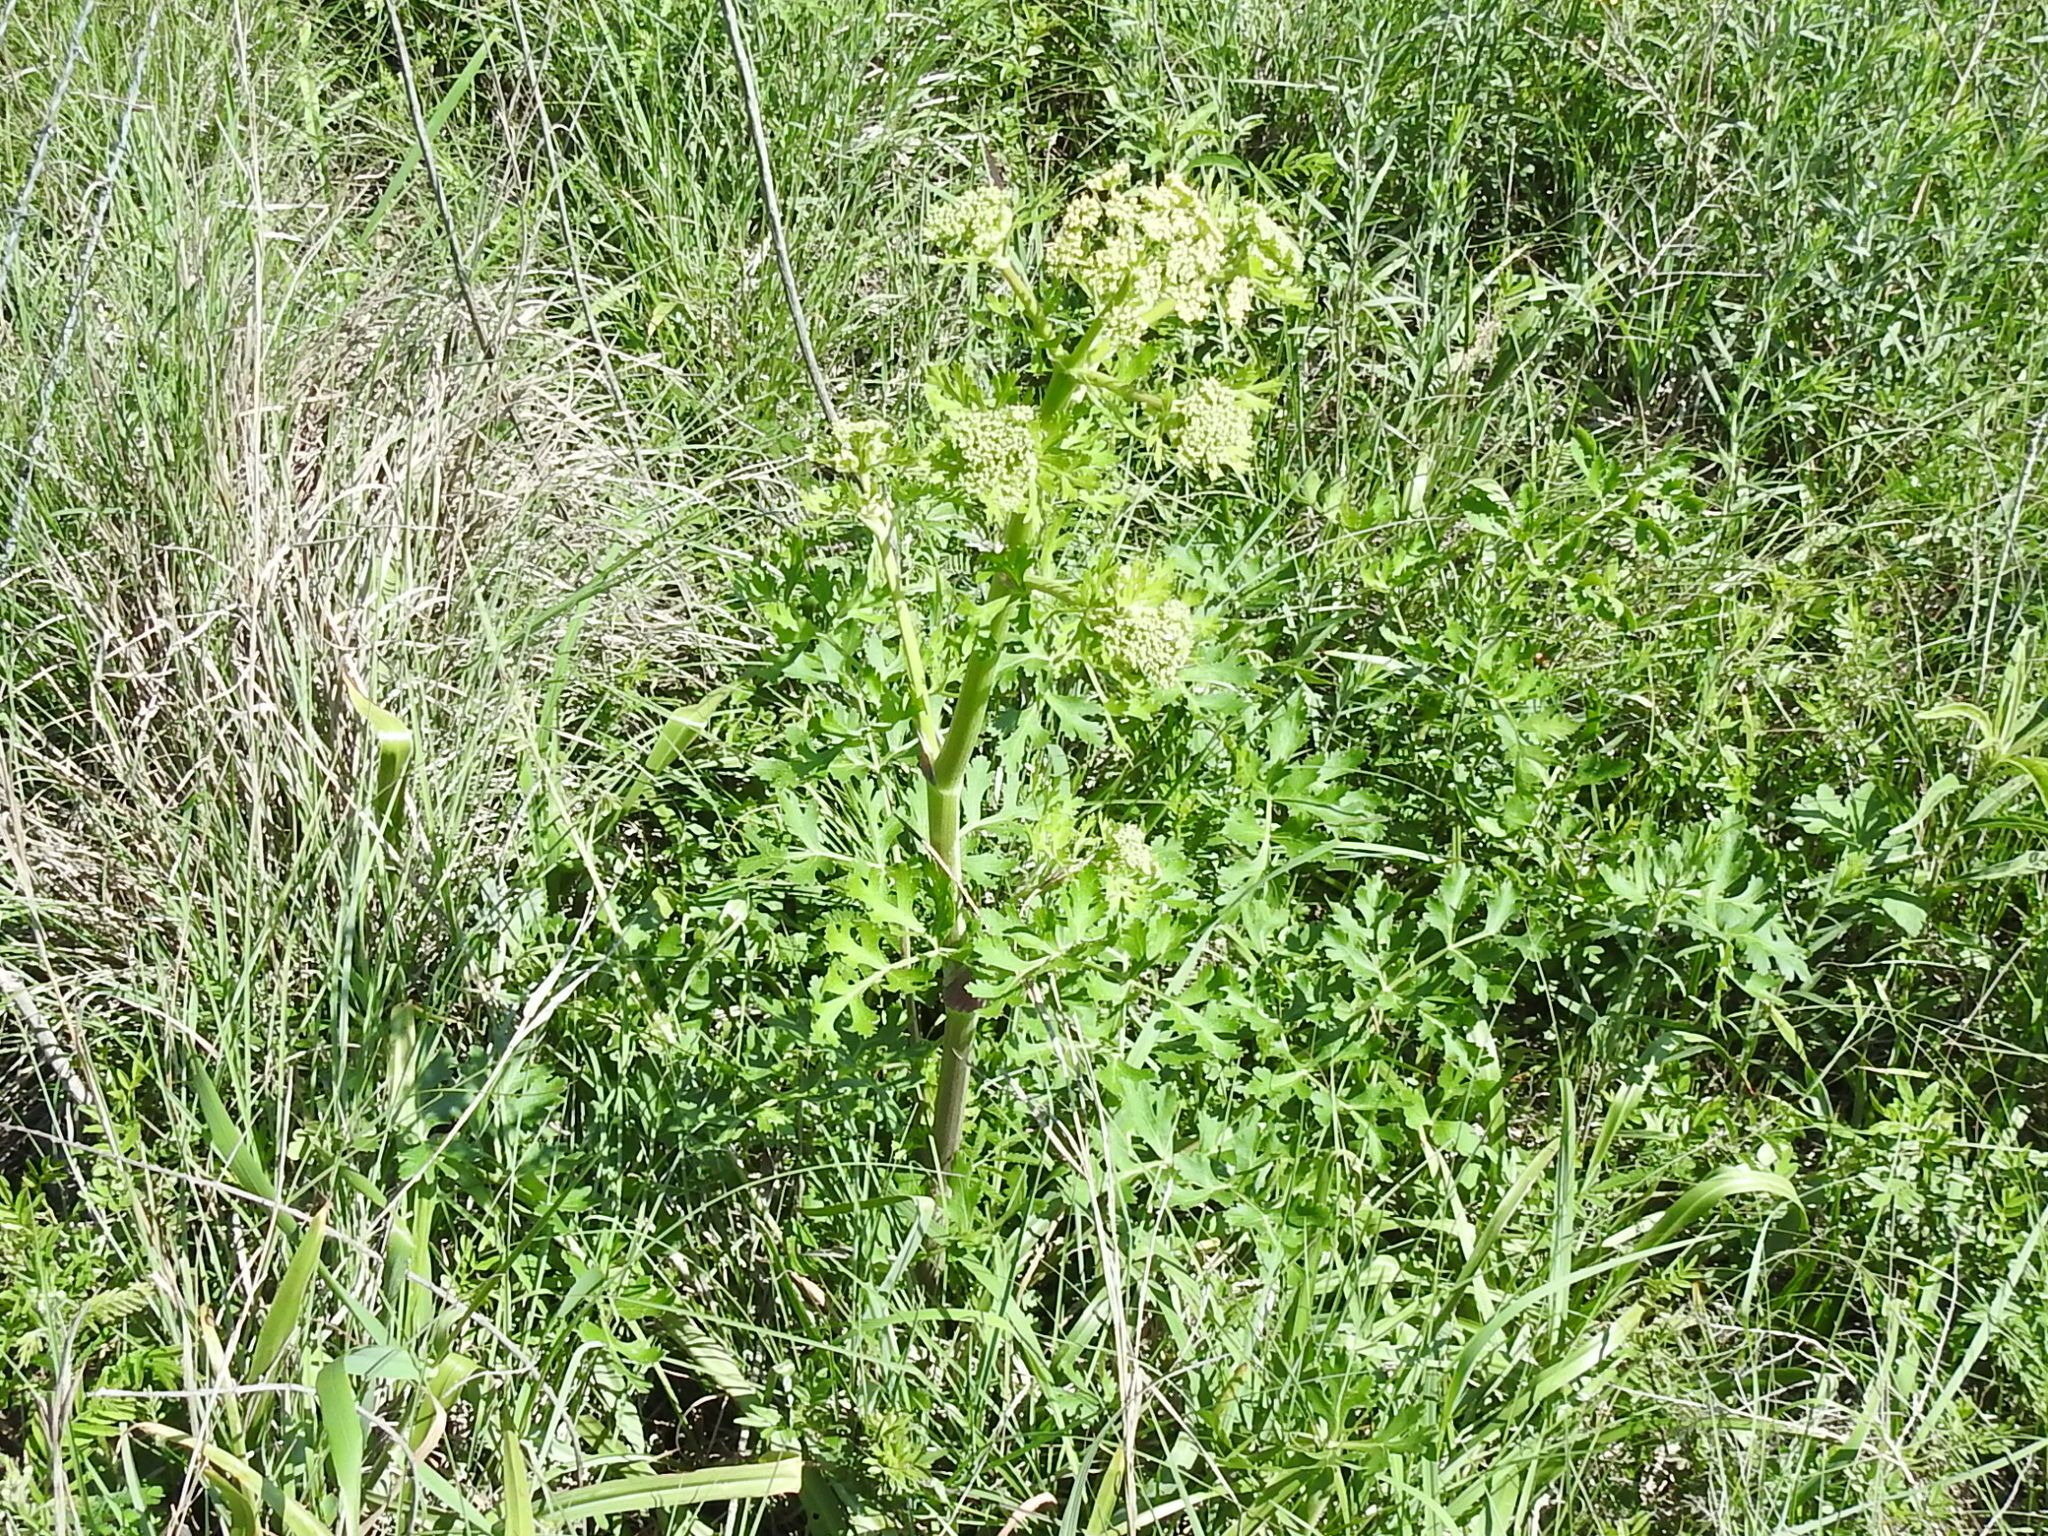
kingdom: Plantae
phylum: Tracheophyta
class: Magnoliopsida
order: Apiales
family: Apiaceae
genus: Polytaenia
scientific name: Polytaenia texana
